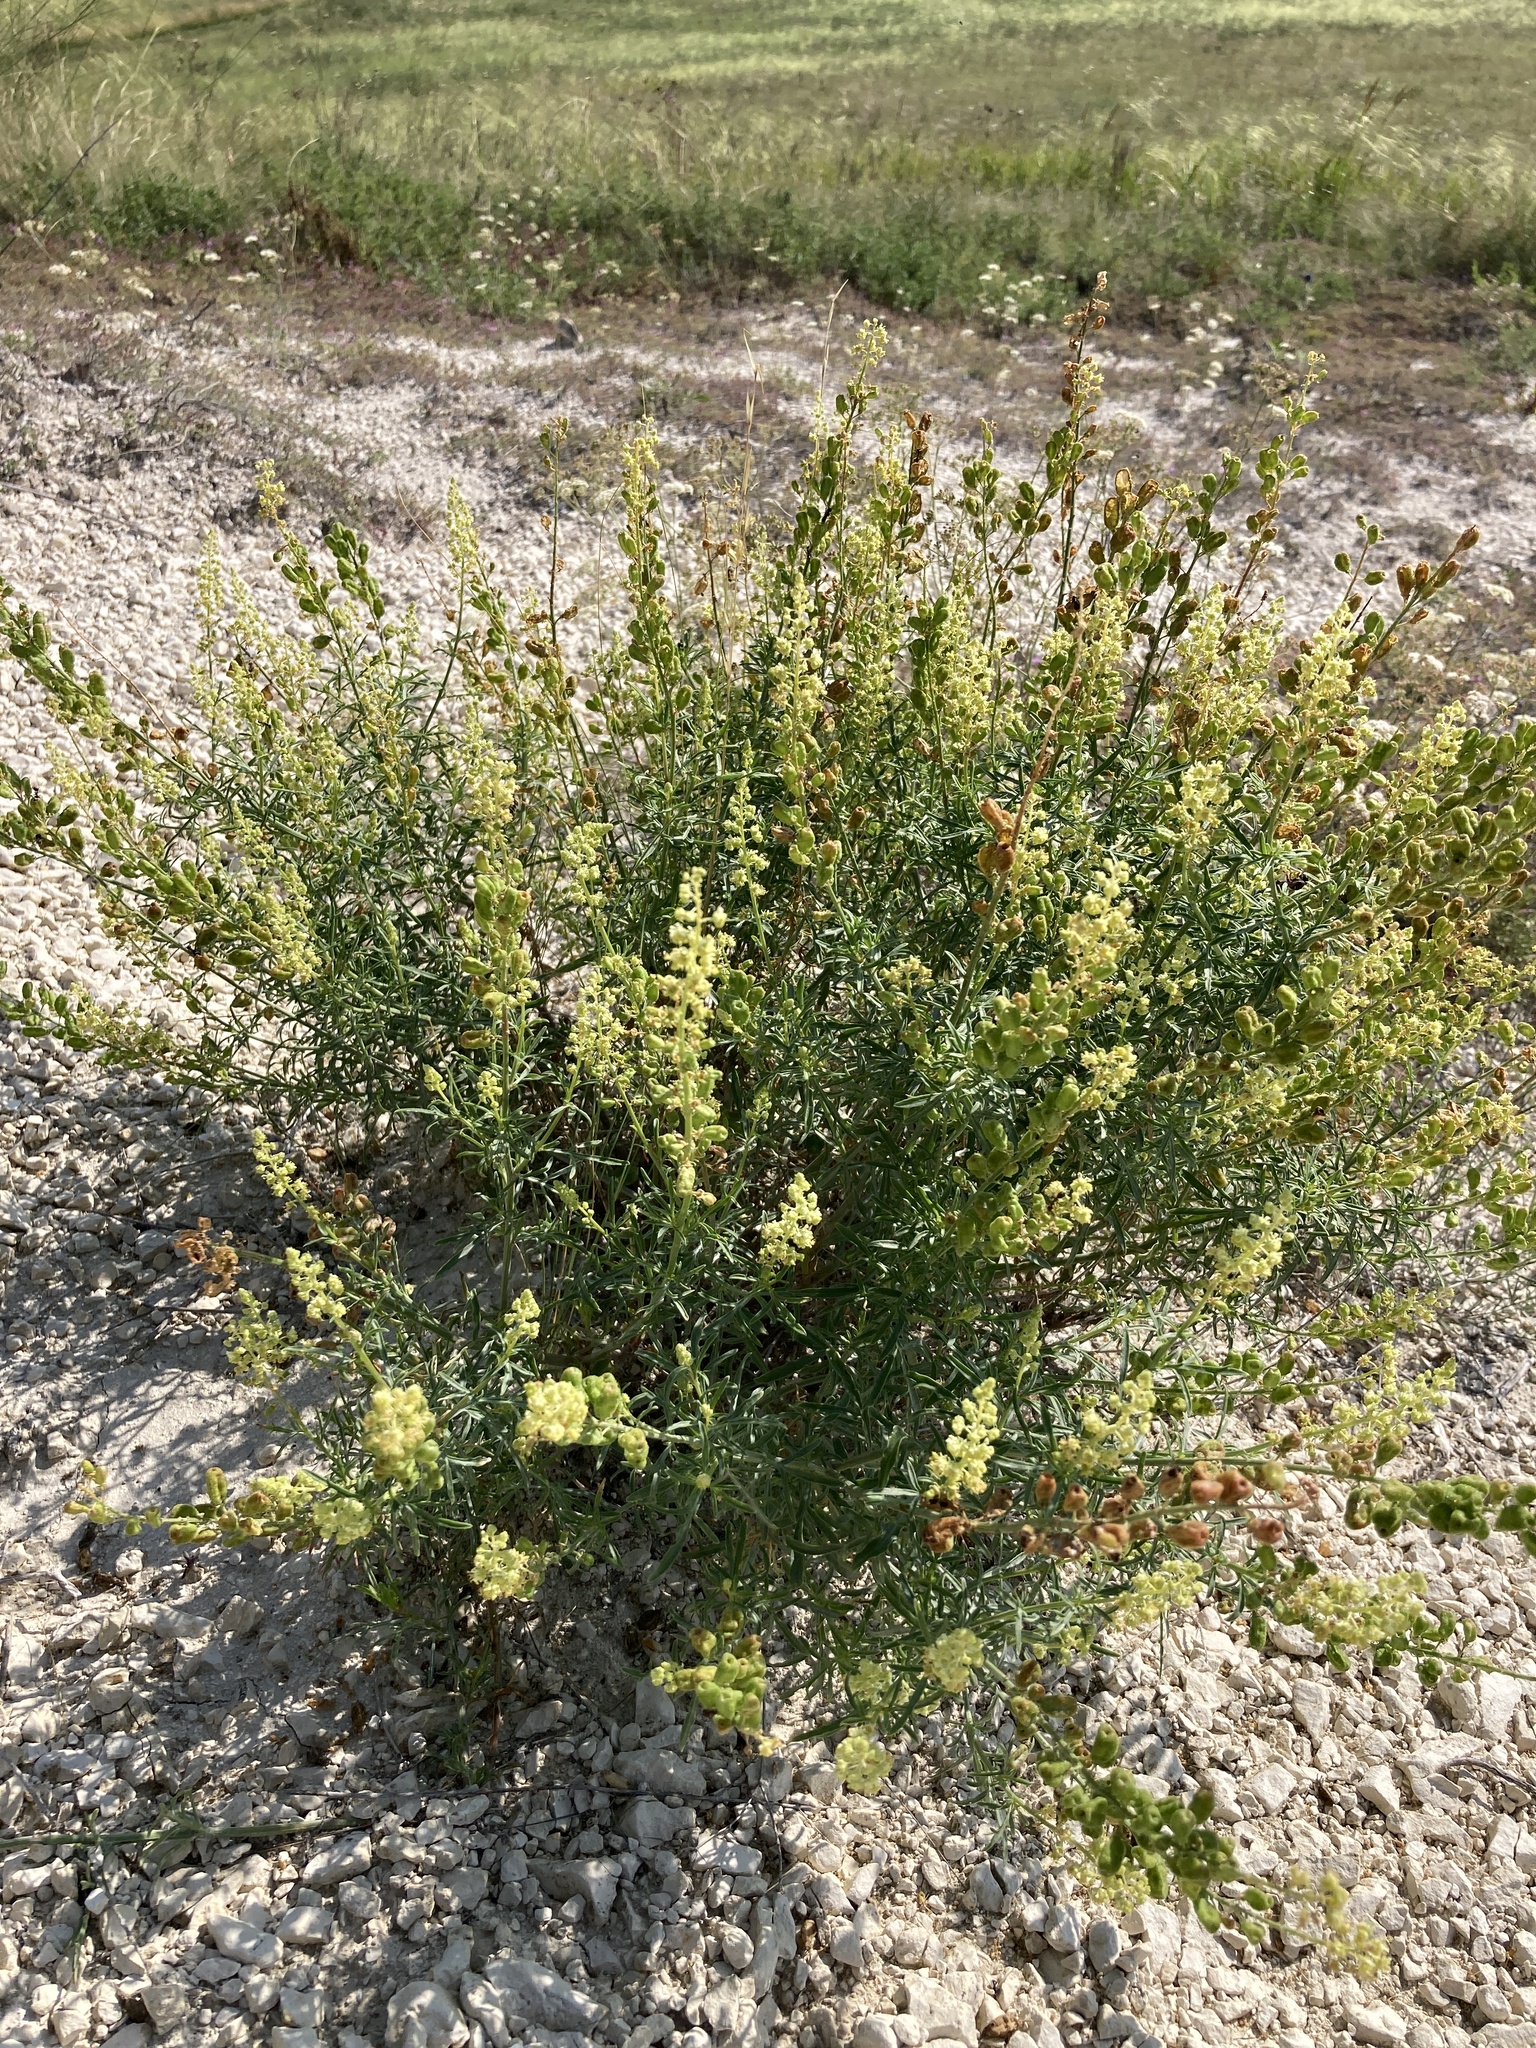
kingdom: Plantae
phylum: Tracheophyta
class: Magnoliopsida
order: Brassicales
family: Resedaceae
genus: Reseda
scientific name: Reseda lutea
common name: Wild mignonette
